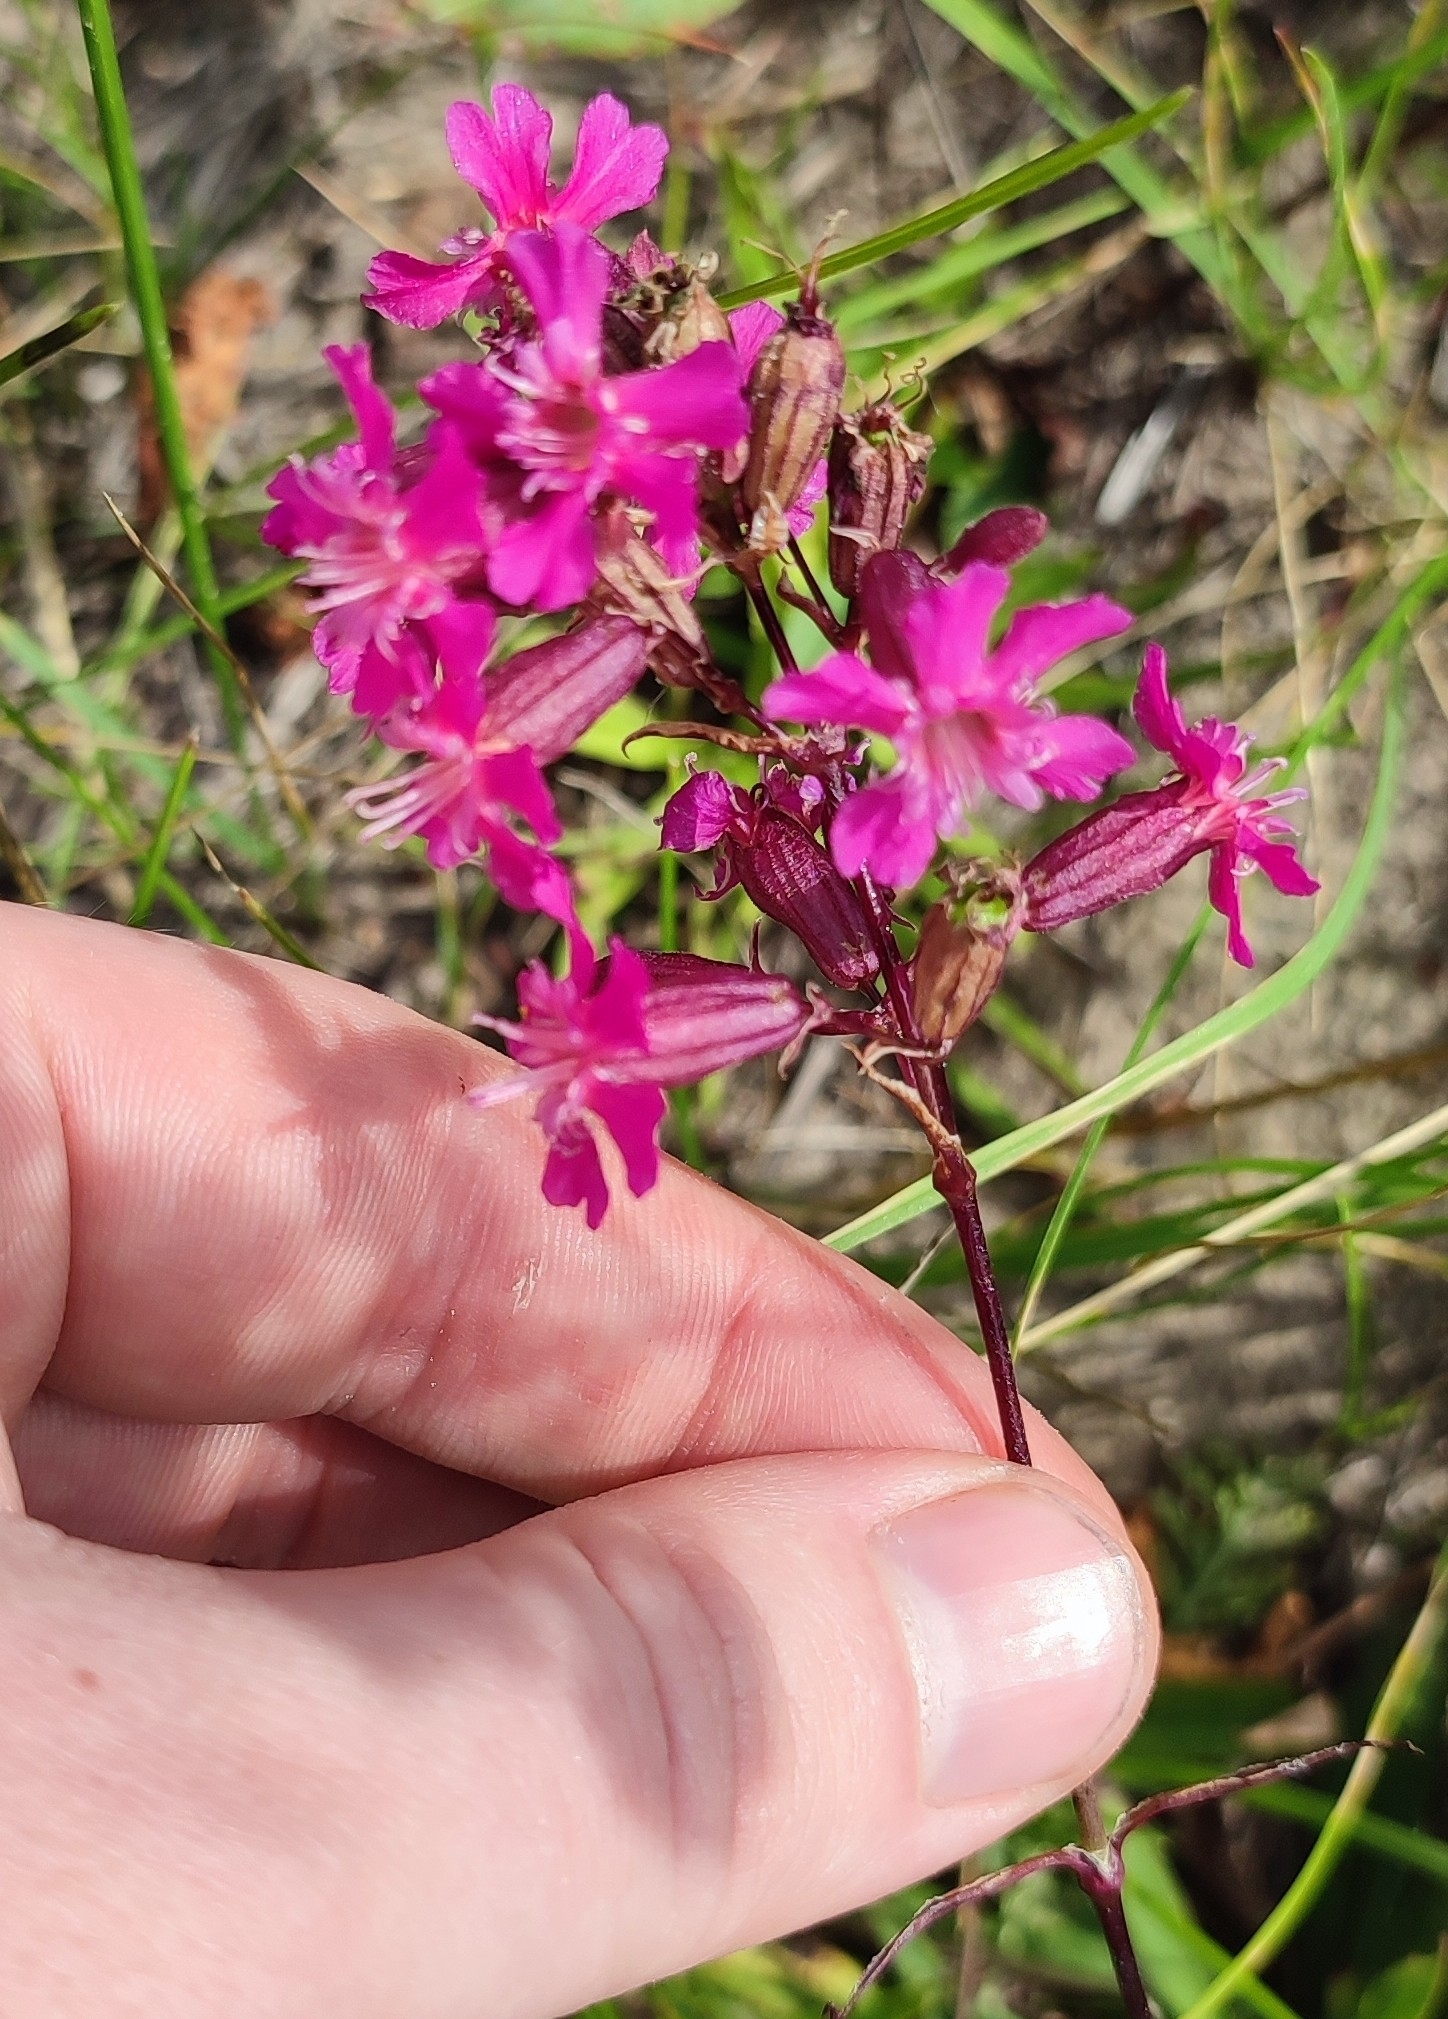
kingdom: Plantae
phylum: Tracheophyta
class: Magnoliopsida
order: Caryophyllales
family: Caryophyllaceae
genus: Viscaria
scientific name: Viscaria vulgaris
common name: Clammy campion
